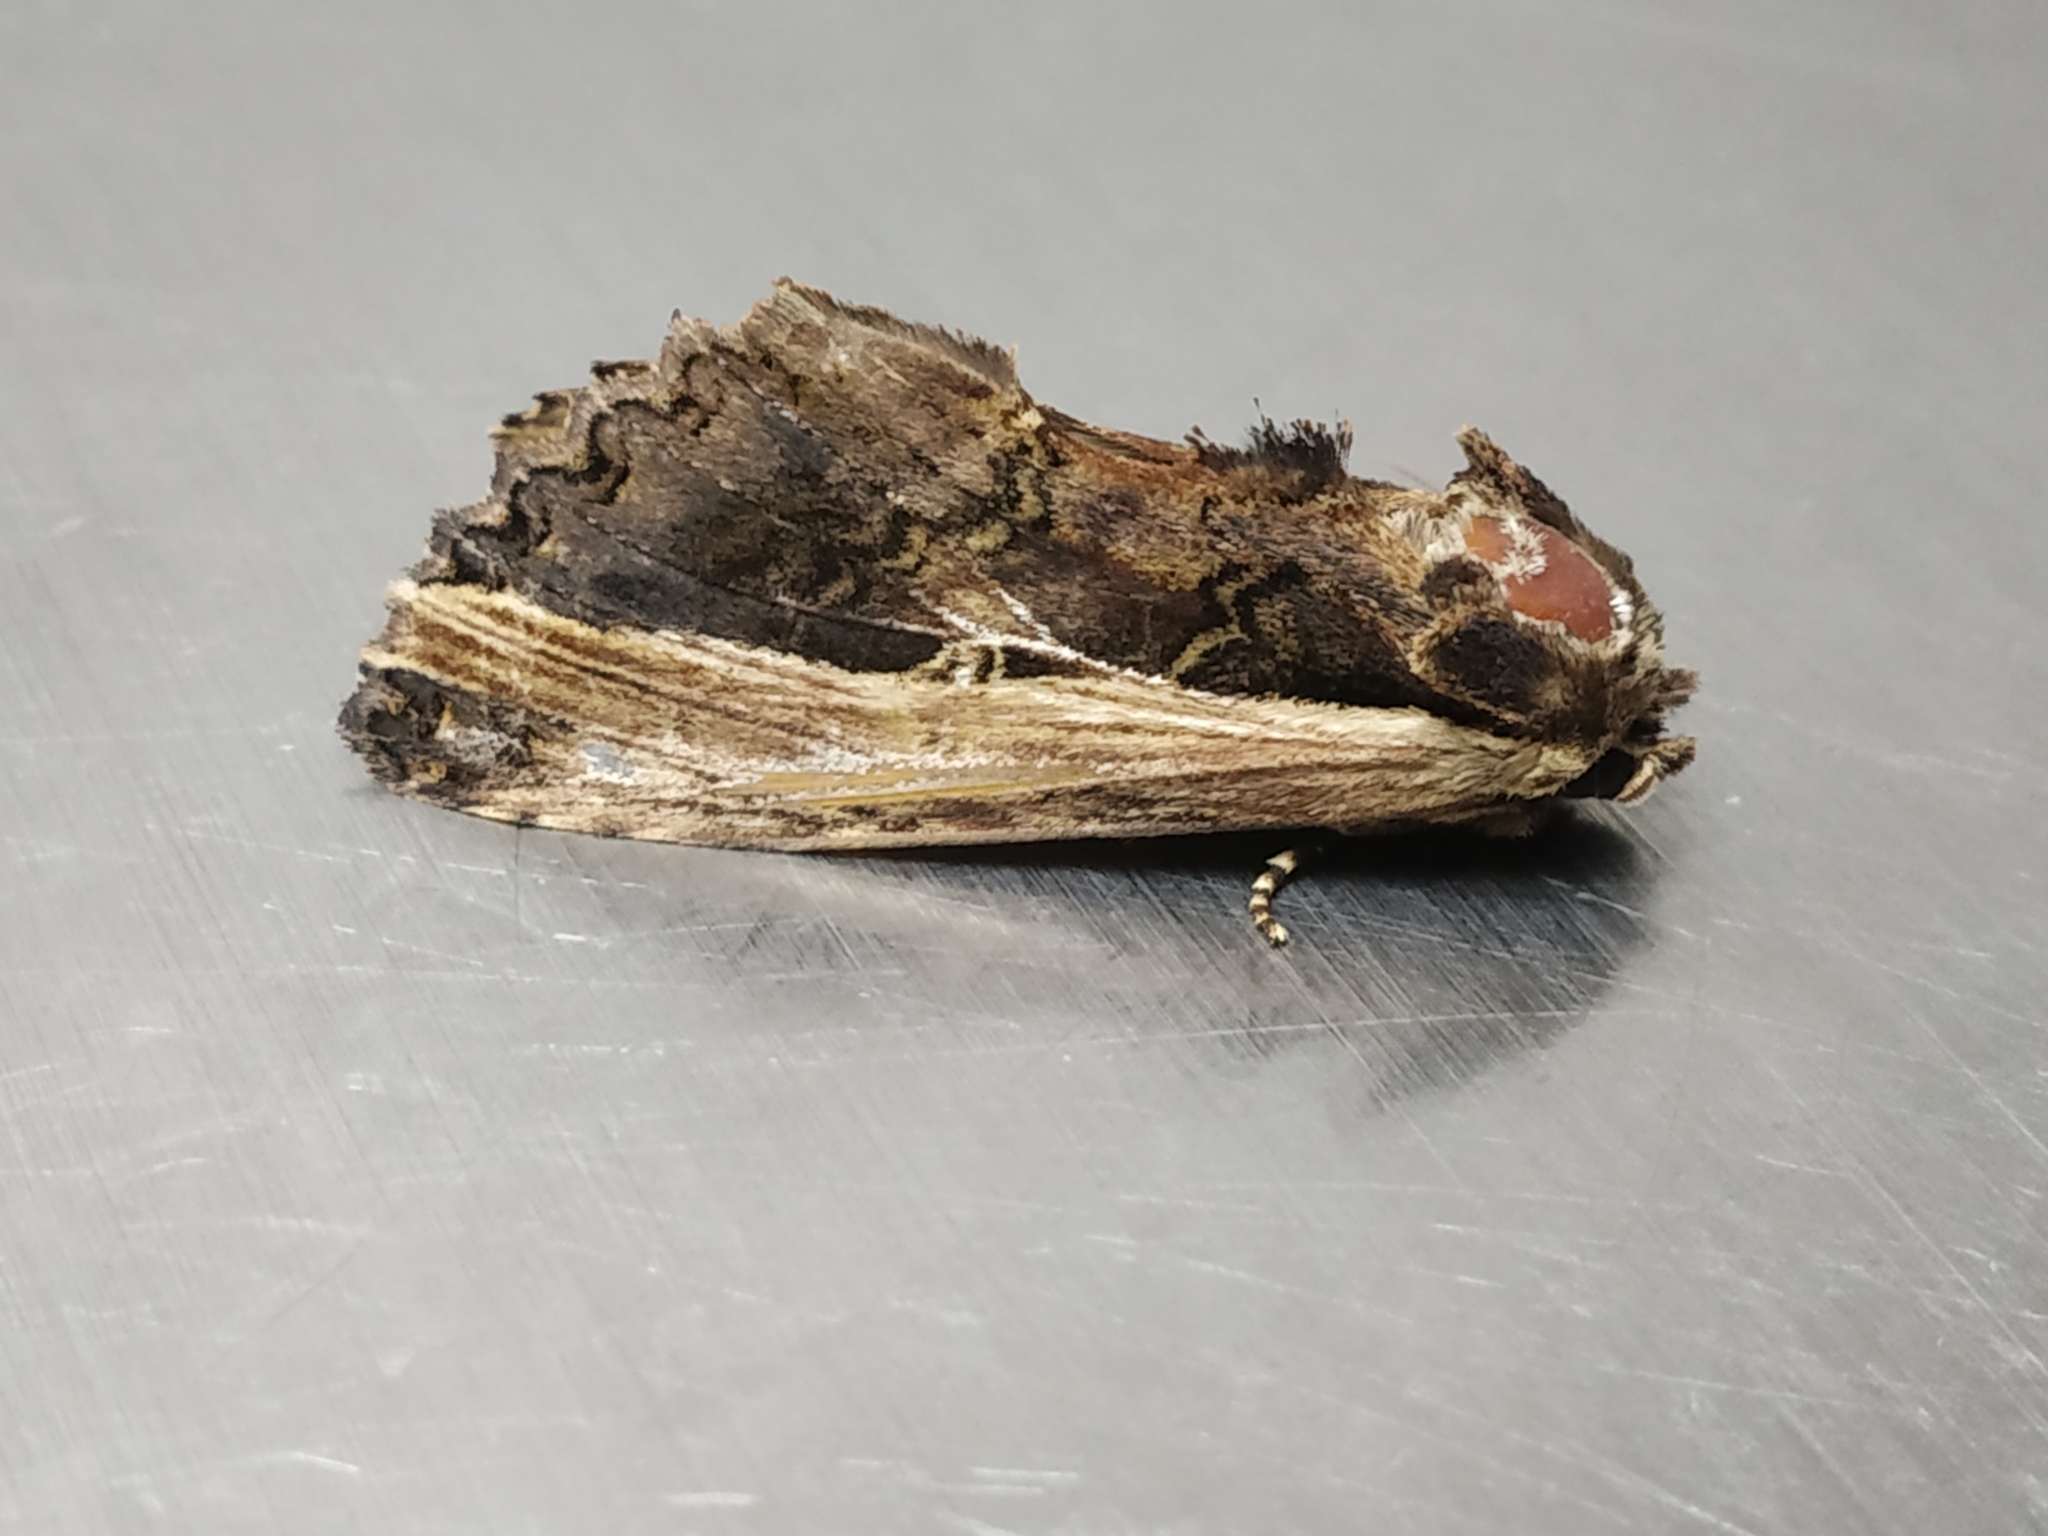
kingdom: Animalia
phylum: Arthropoda
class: Insecta
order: Lepidoptera
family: Notodontidae
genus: Spatalia
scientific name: Spatalia
